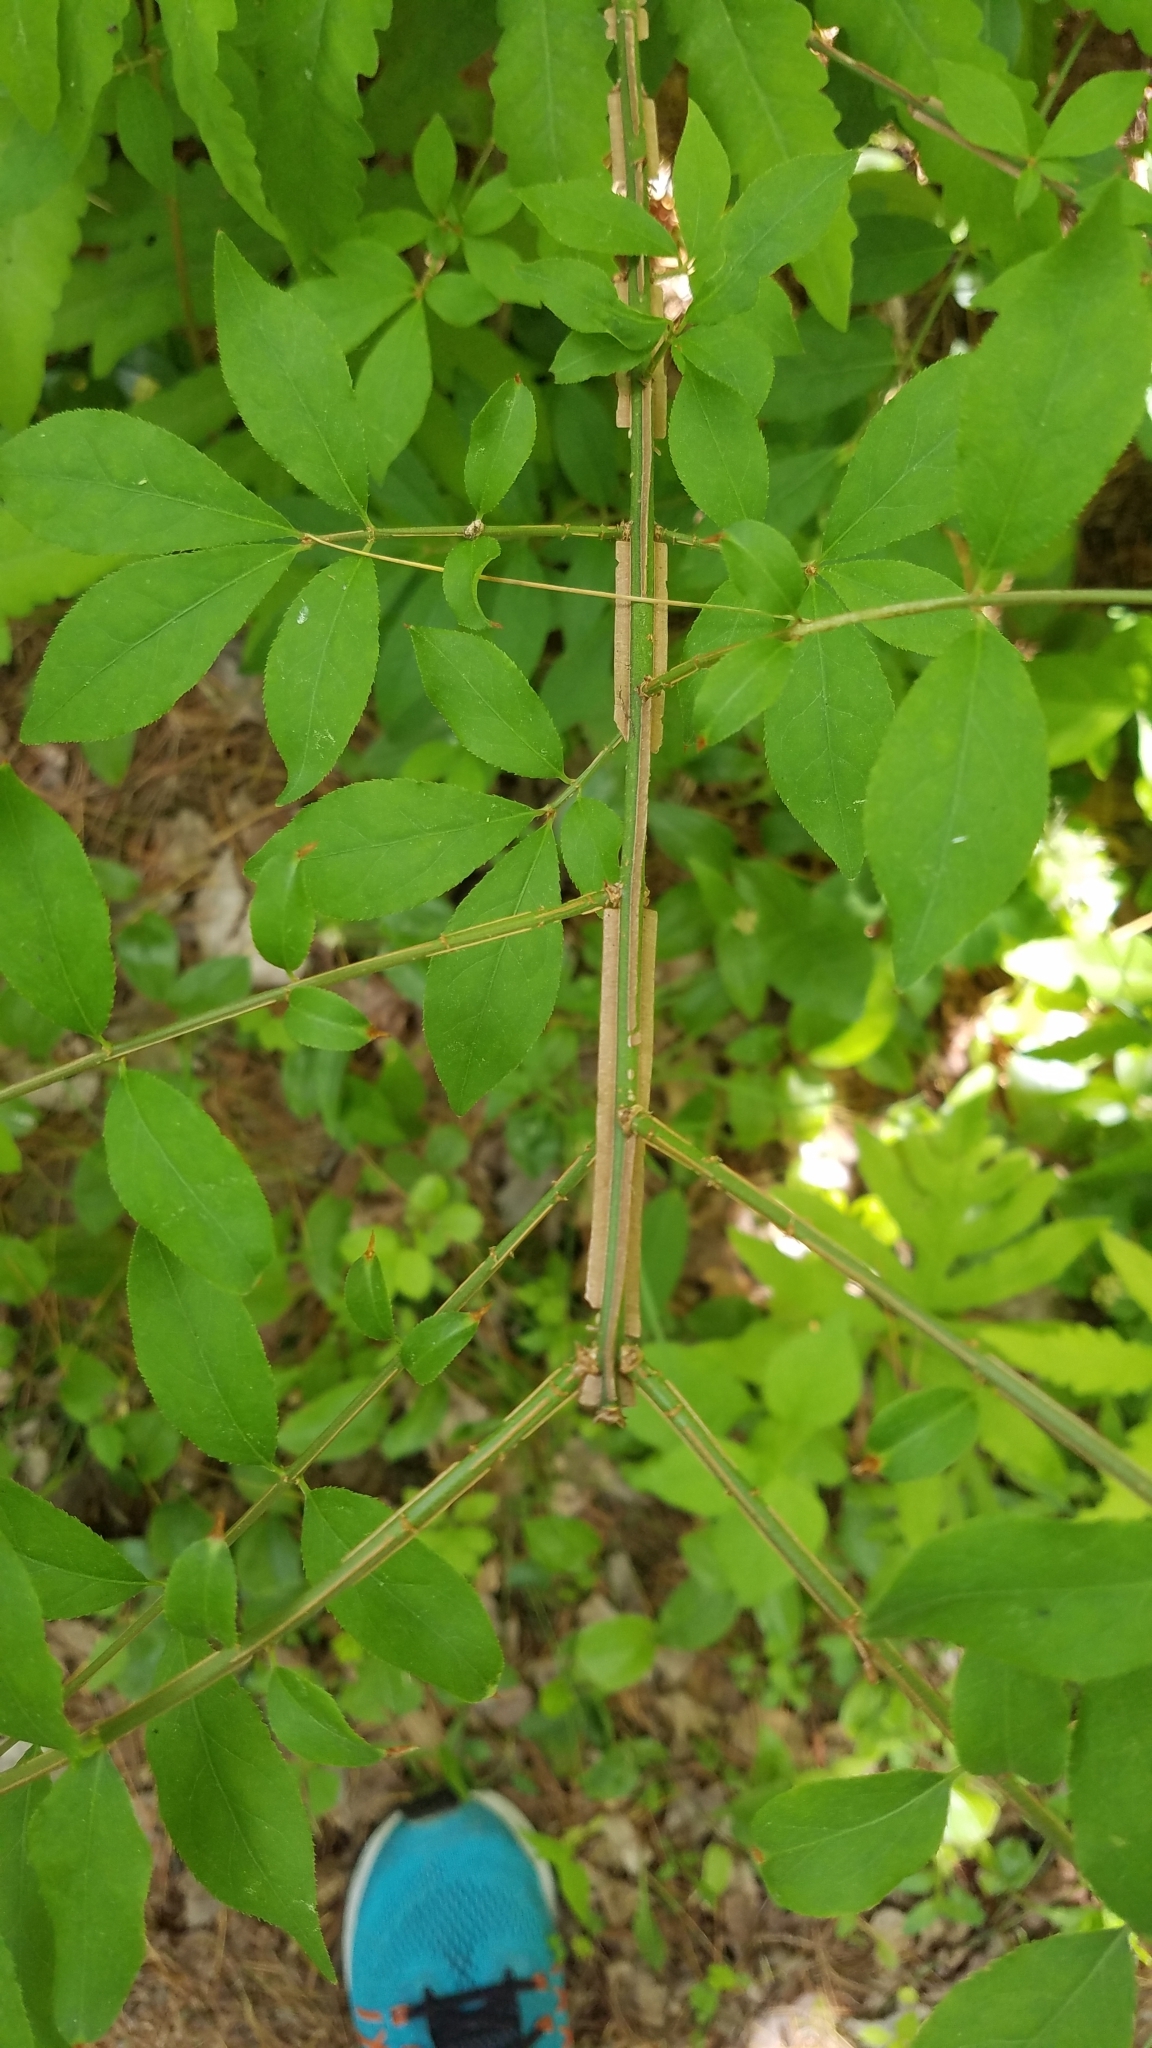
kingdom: Plantae
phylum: Tracheophyta
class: Magnoliopsida
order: Celastrales
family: Celastraceae
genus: Euonymus
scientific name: Euonymus alatus
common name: Winged euonymus
